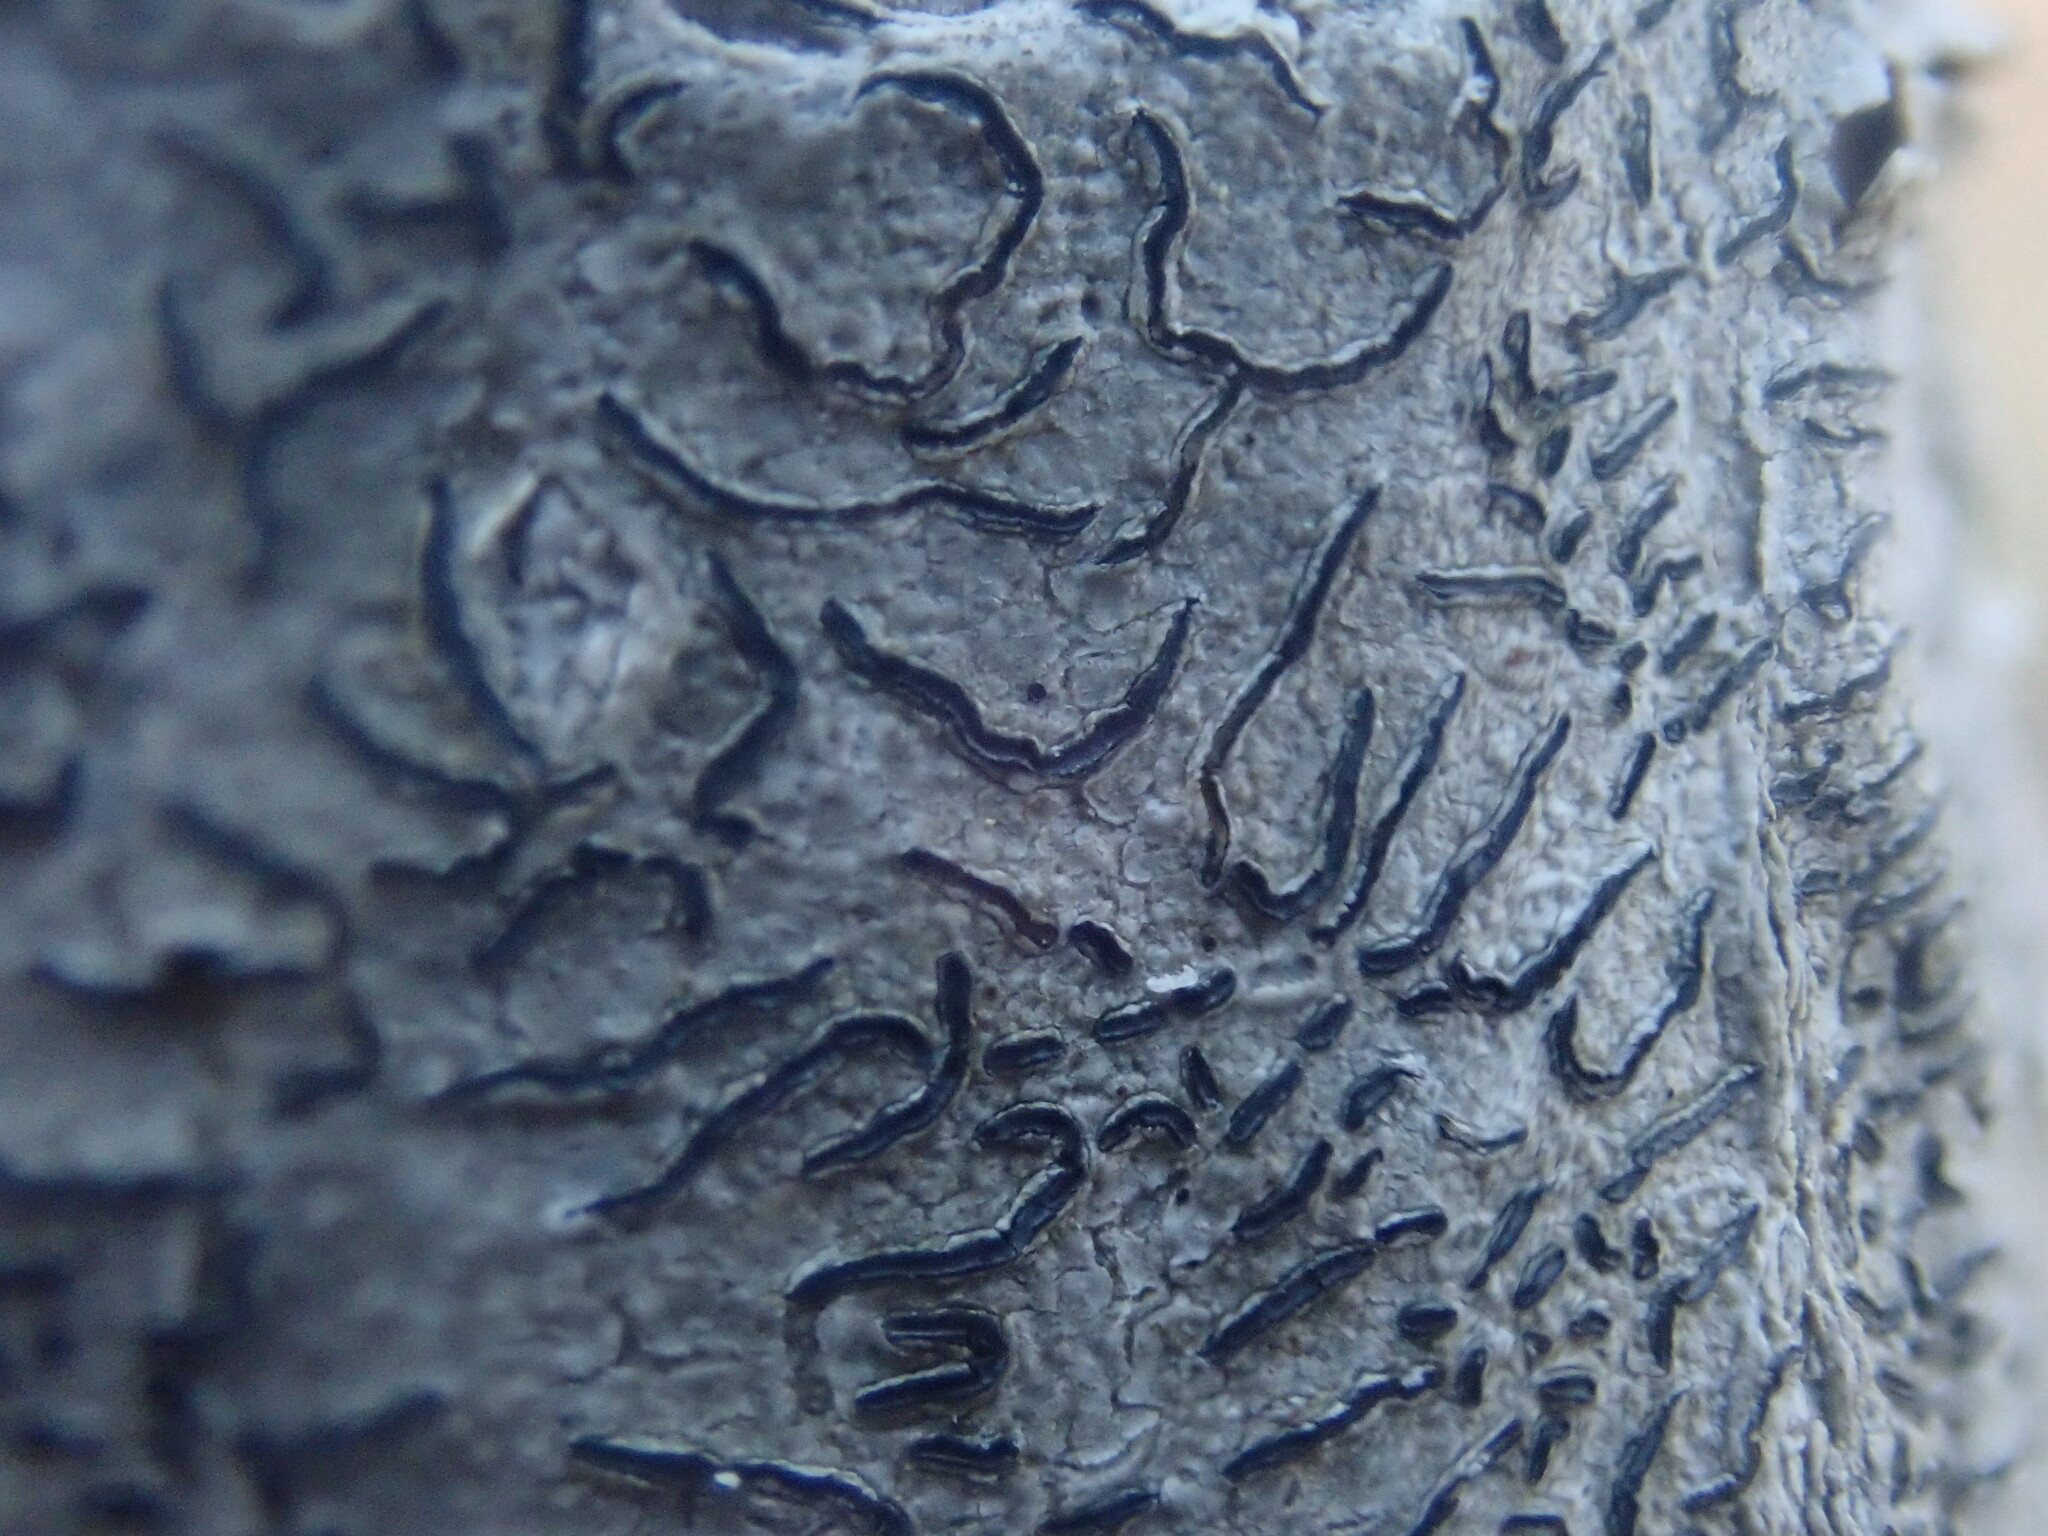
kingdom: Fungi
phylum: Ascomycota
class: Lecanoromycetes
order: Ostropales
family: Graphidaceae
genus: Graphis
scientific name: Graphis scripta
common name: Script lichen
